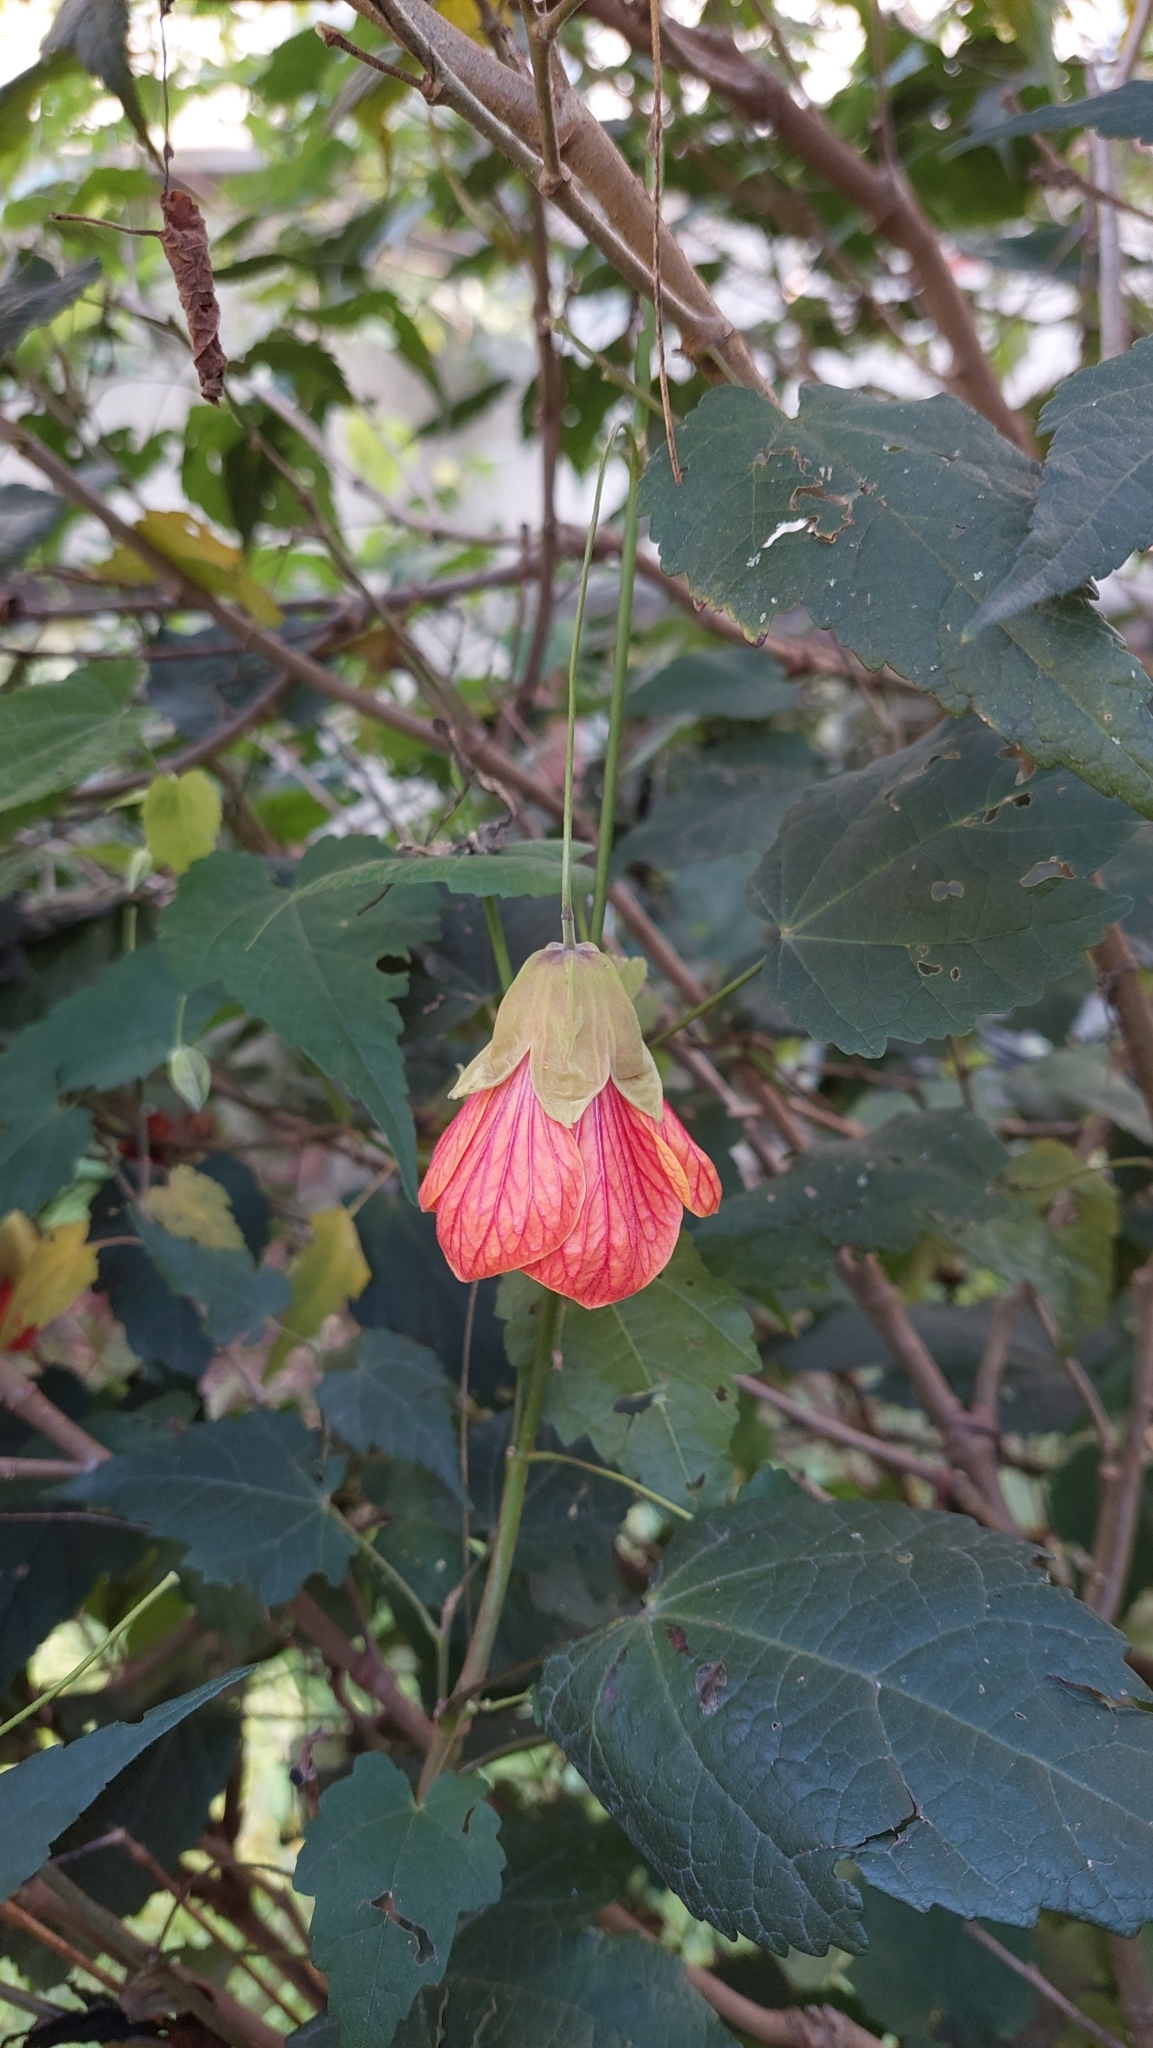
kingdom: Plantae
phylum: Tracheophyta
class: Magnoliopsida
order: Malvales
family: Malvaceae
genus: Callianthe
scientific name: Callianthe picta
